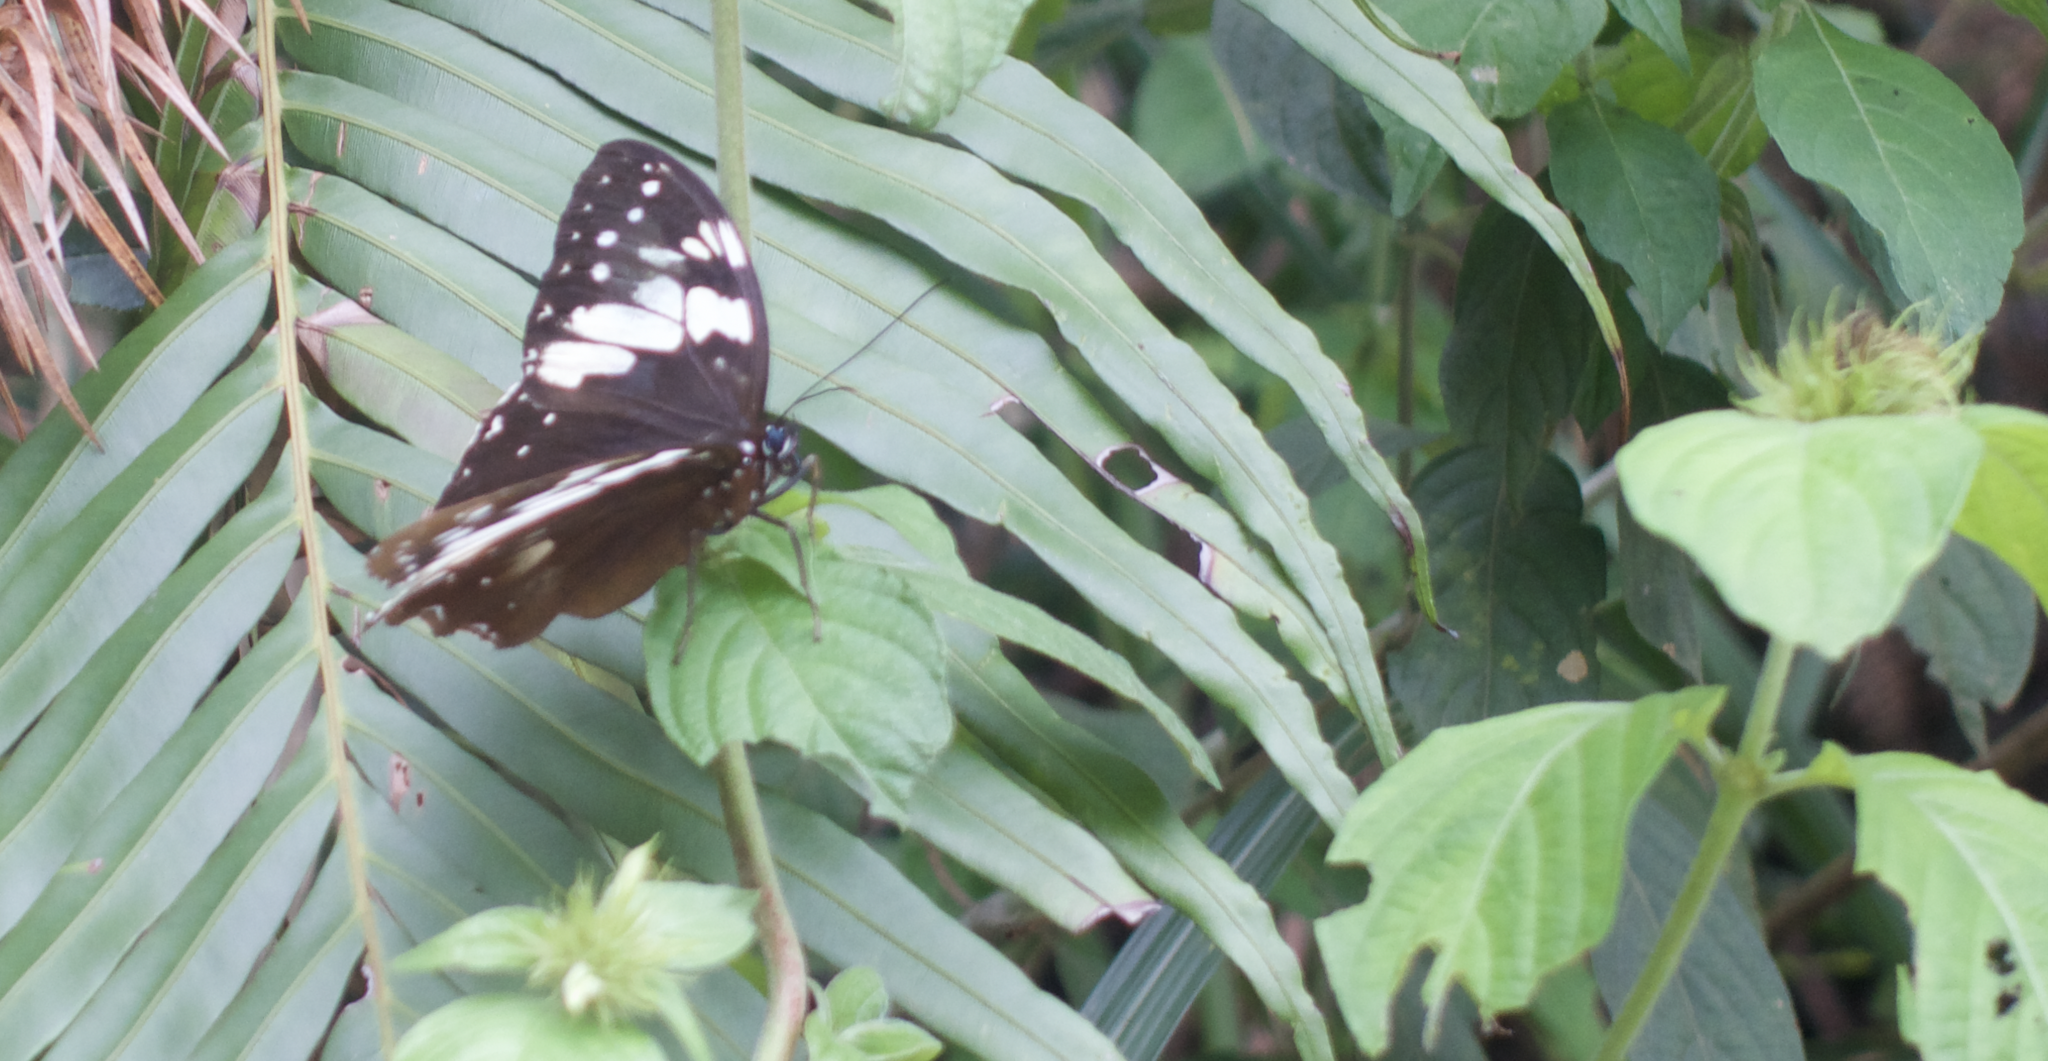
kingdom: Animalia
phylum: Arthropoda
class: Insecta
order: Lepidoptera
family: Nymphalidae
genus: Penthema
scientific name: Penthema adelma
